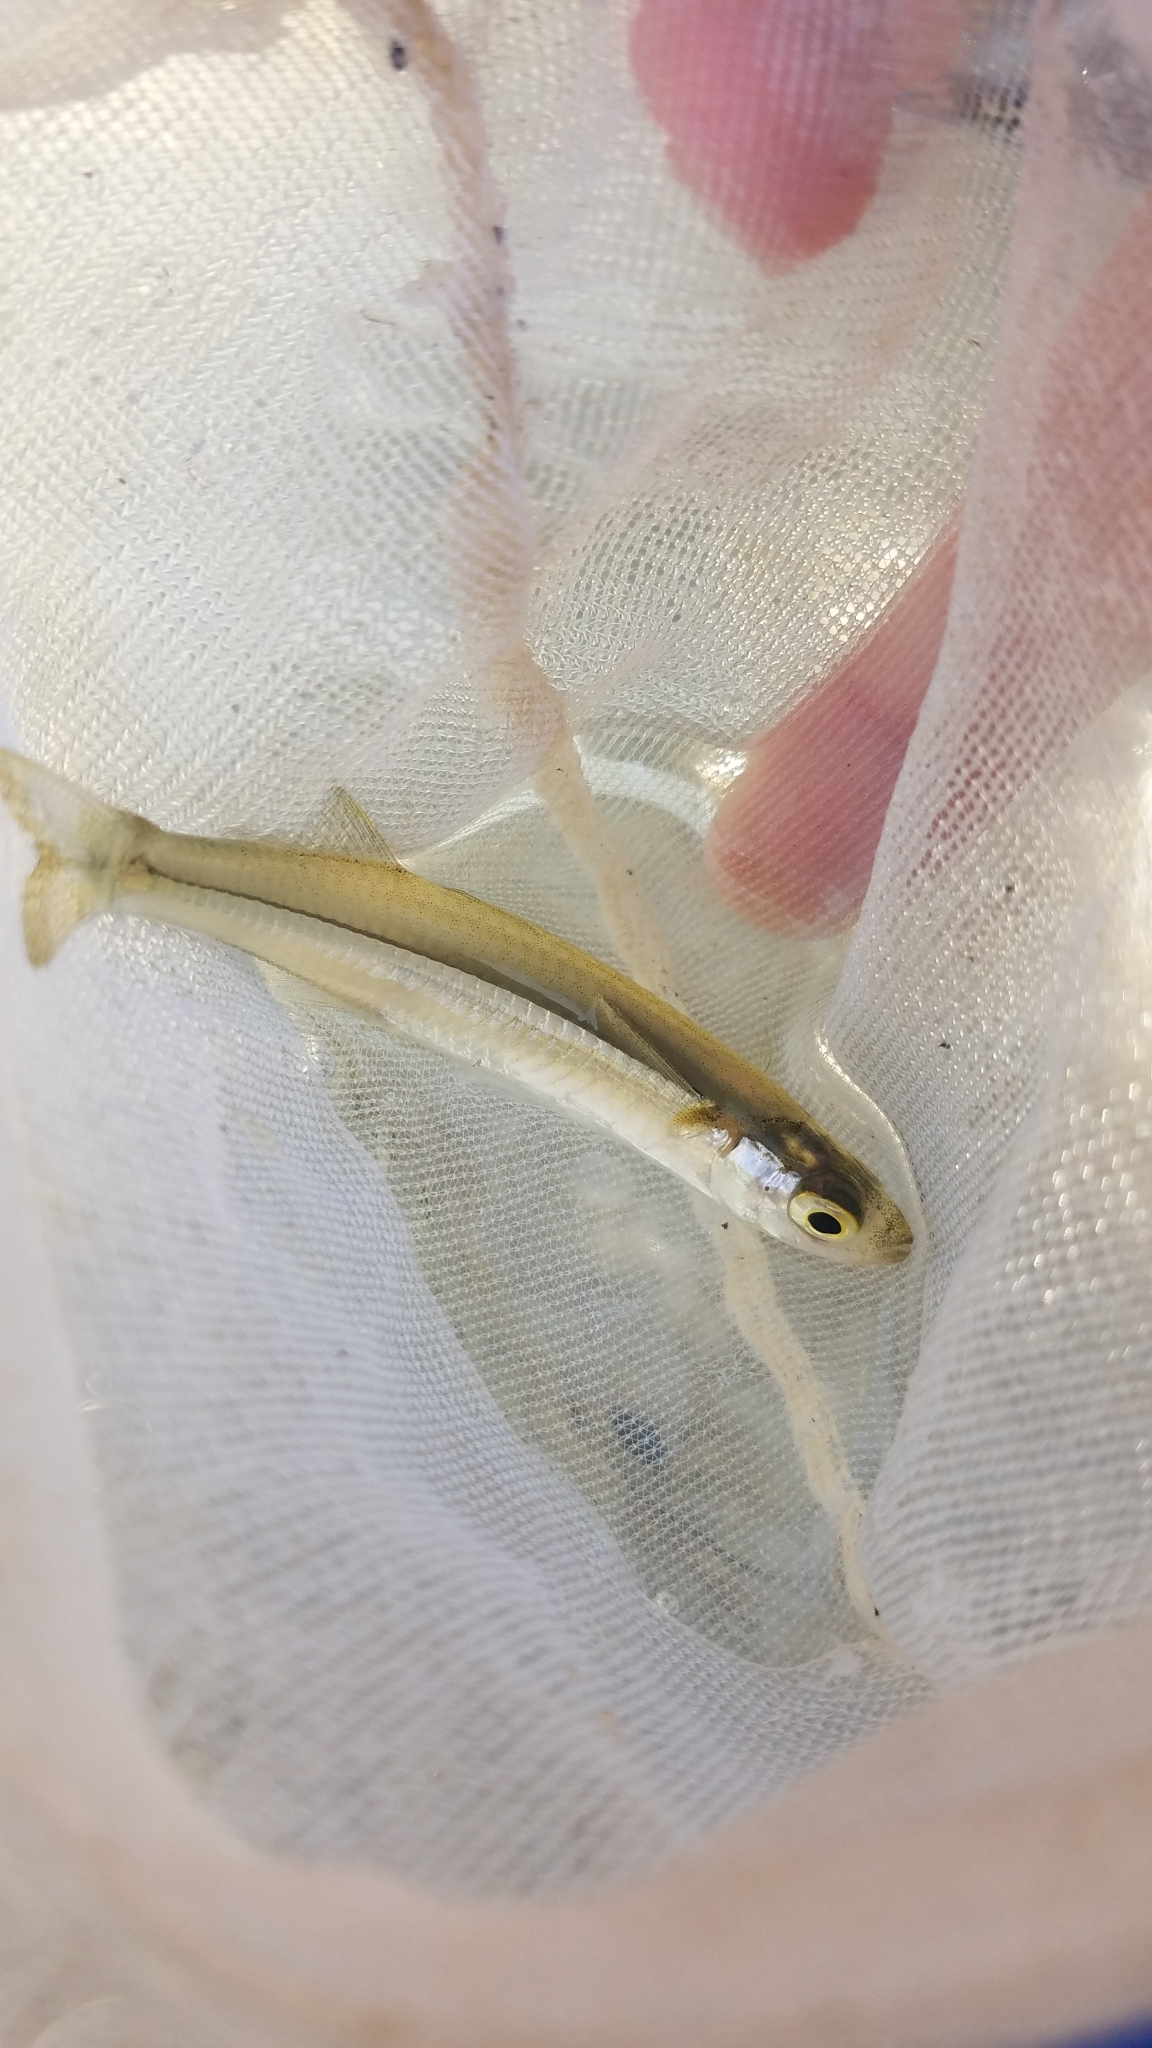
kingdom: Animalia
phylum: Chordata
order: Atheriniformes
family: Atherinopsidae
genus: Menidia
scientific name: Menidia menidia
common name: Atlantic silverside
